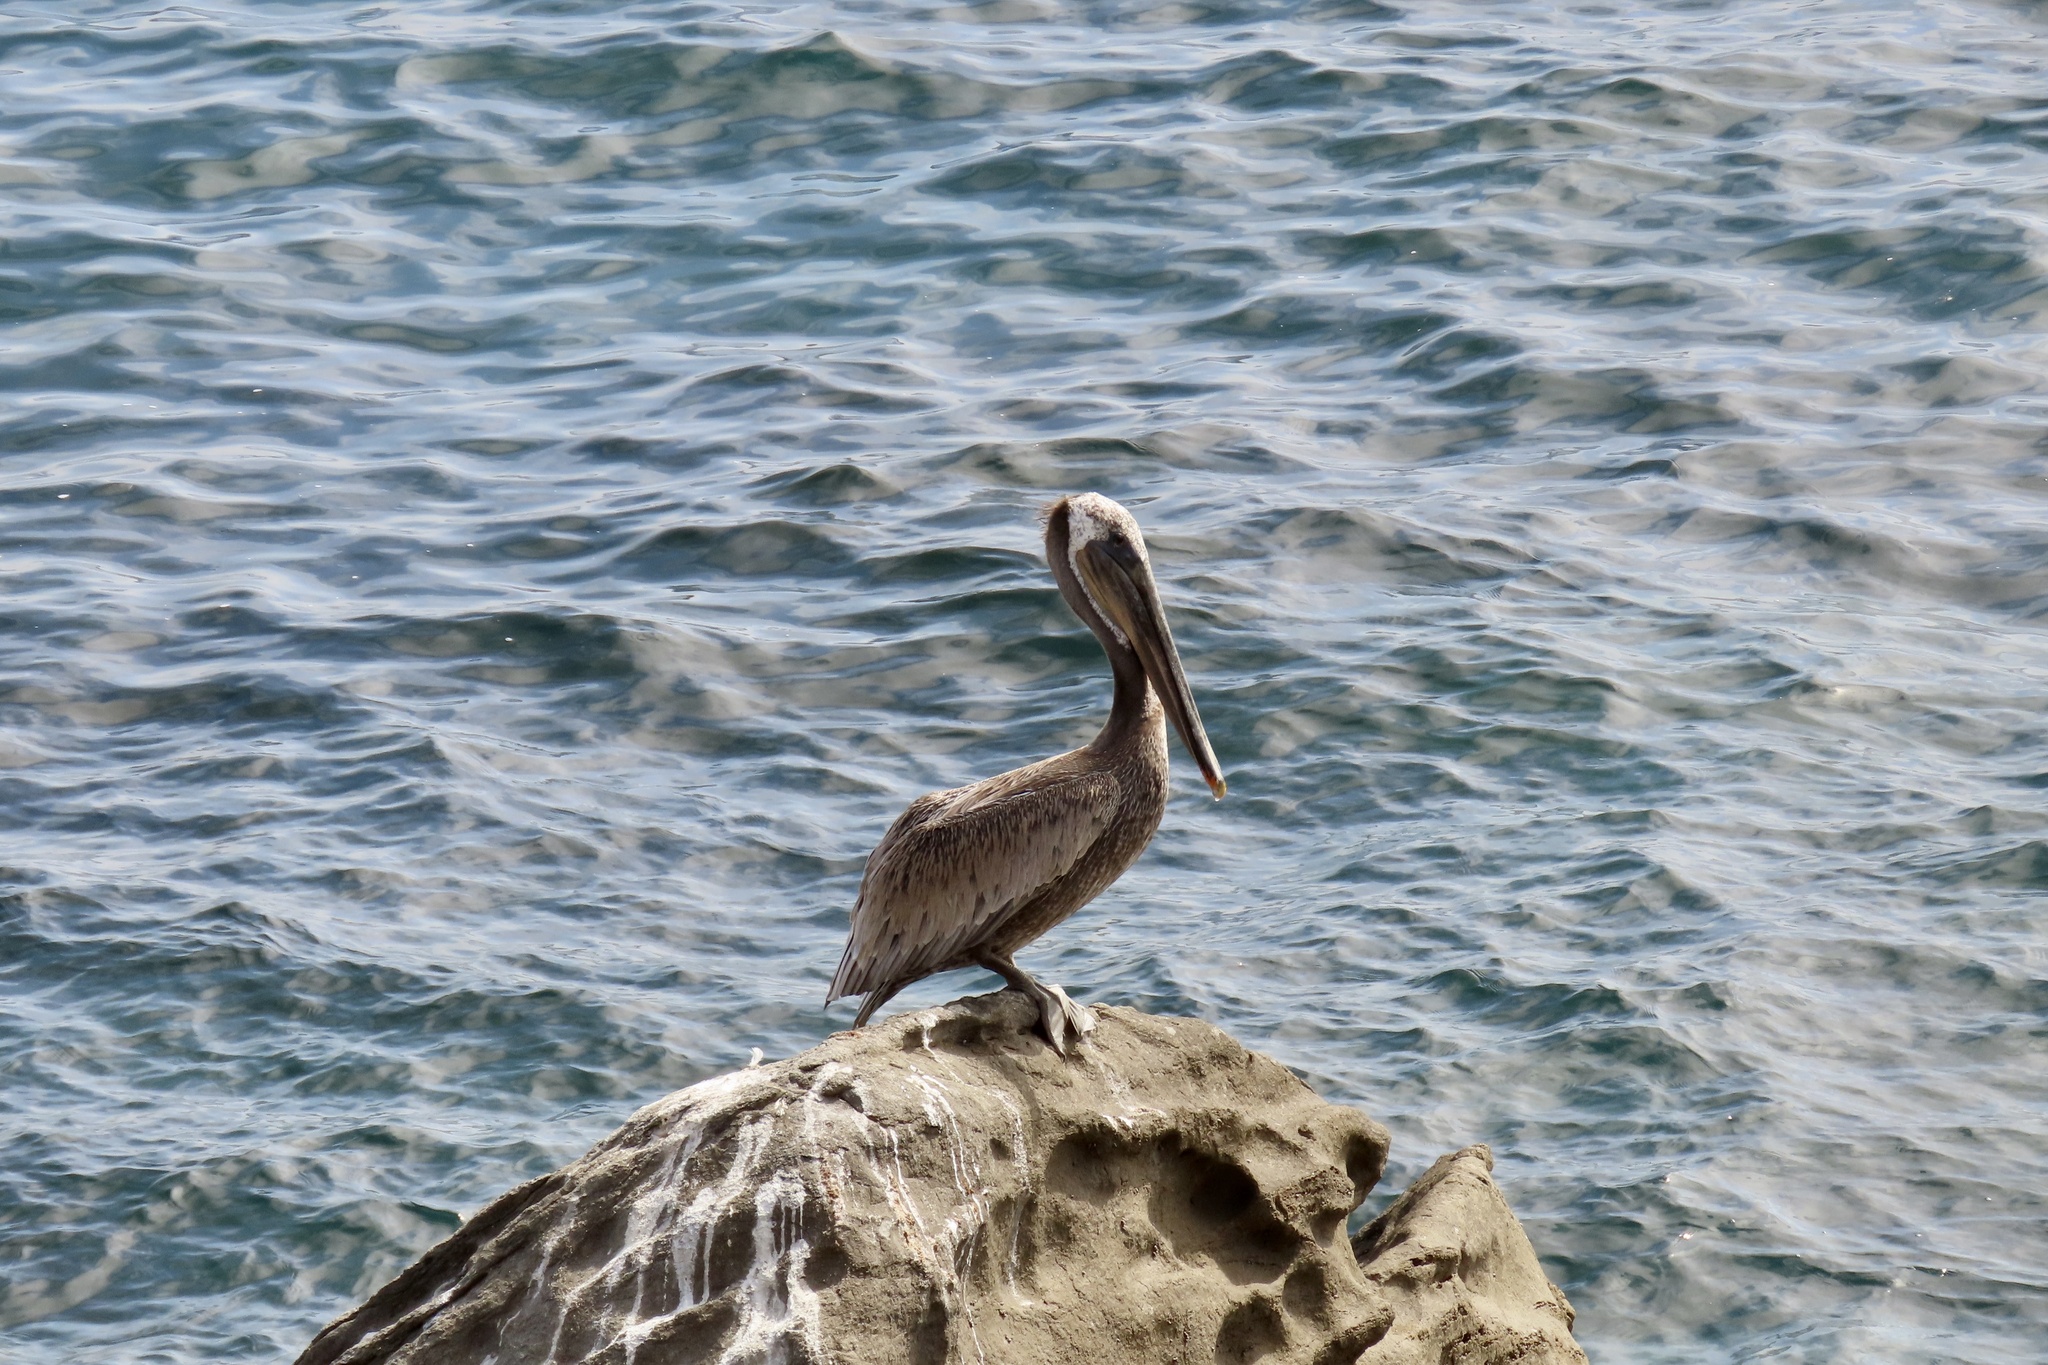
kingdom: Animalia
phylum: Chordata
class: Aves
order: Pelecaniformes
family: Pelecanidae
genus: Pelecanus
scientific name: Pelecanus occidentalis
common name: Brown pelican
